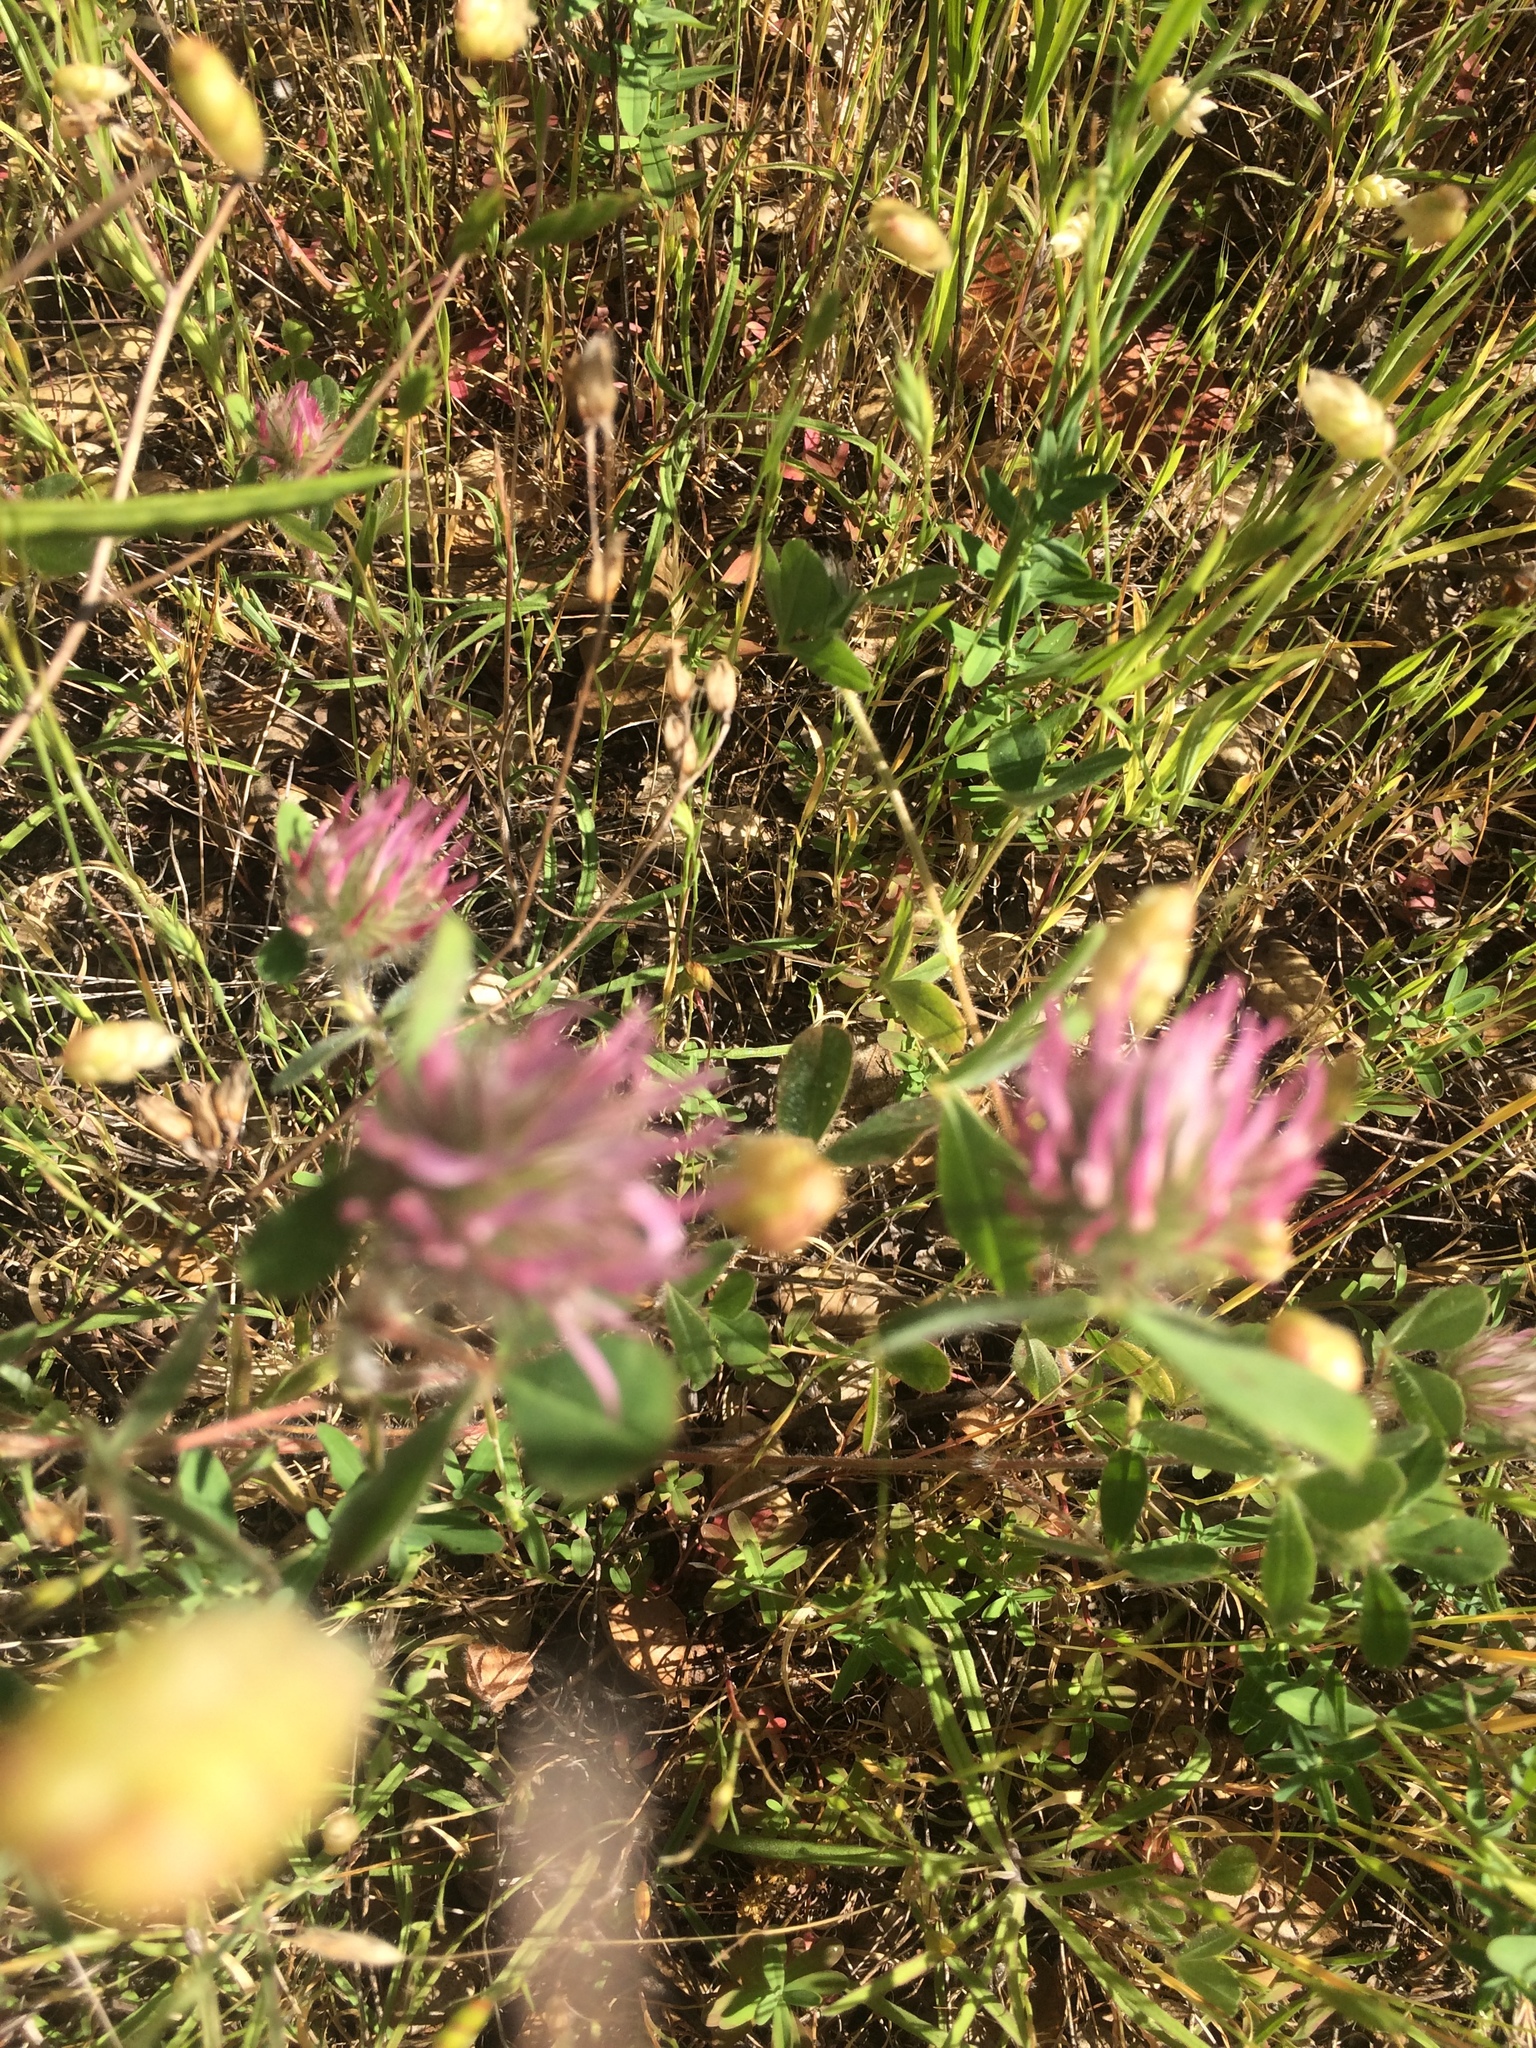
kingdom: Plantae
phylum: Tracheophyta
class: Magnoliopsida
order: Fabales
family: Fabaceae
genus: Trifolium
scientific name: Trifolium hirtum
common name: Rose clover
